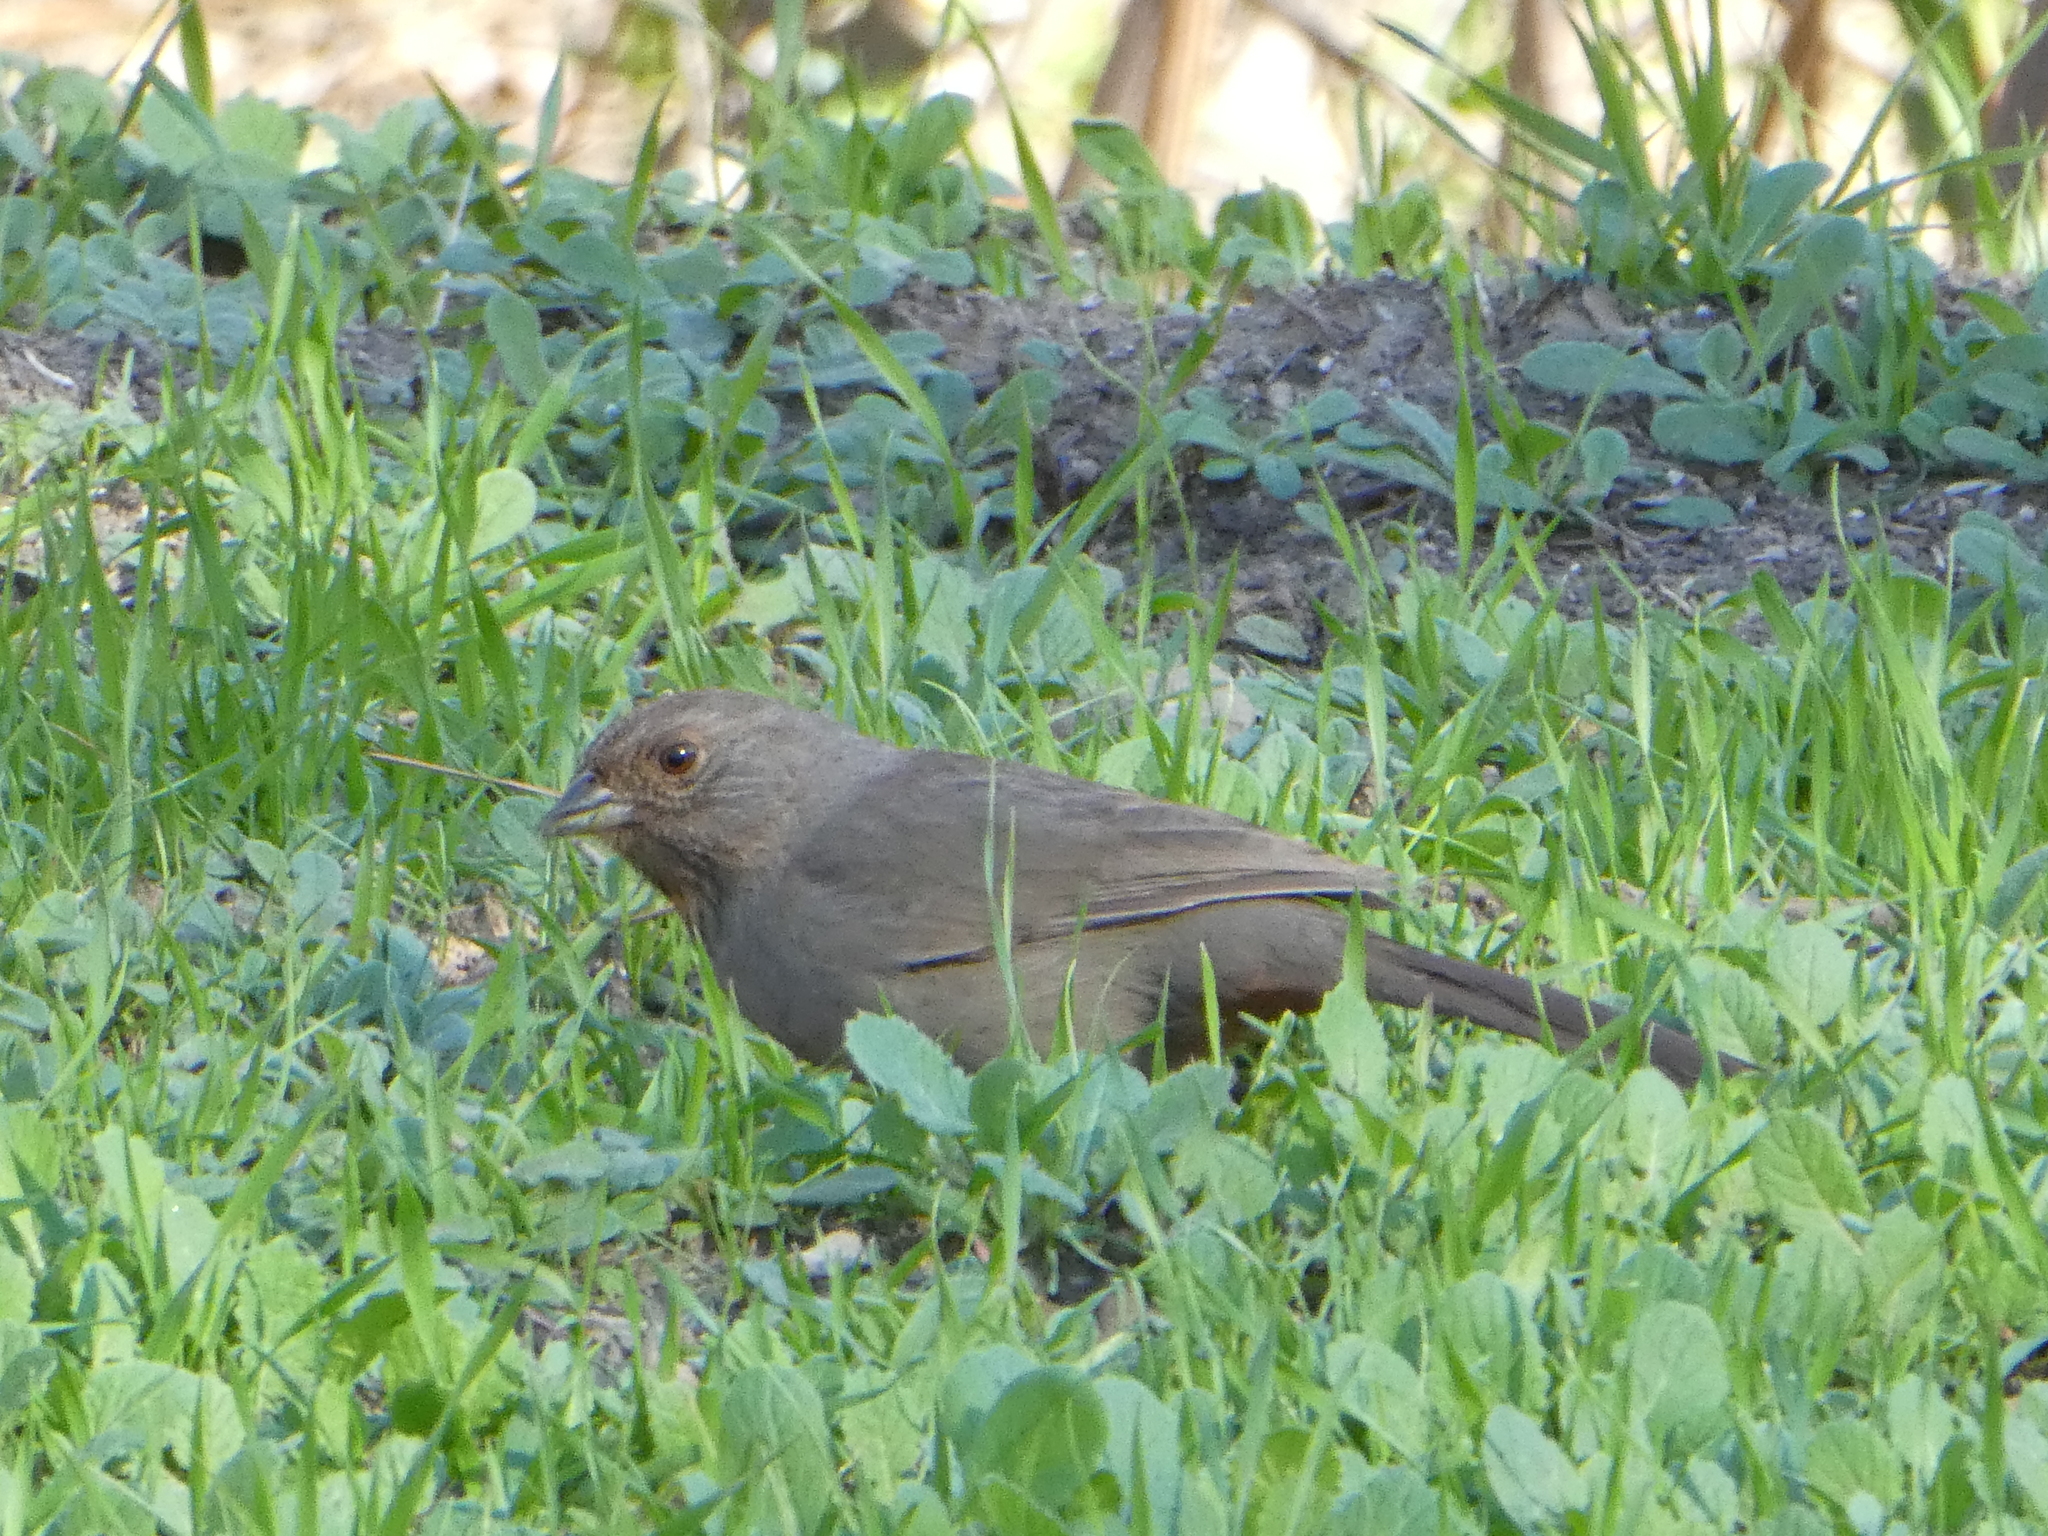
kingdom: Animalia
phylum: Chordata
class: Aves
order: Passeriformes
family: Passerellidae
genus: Melozone
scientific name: Melozone crissalis
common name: California towhee
